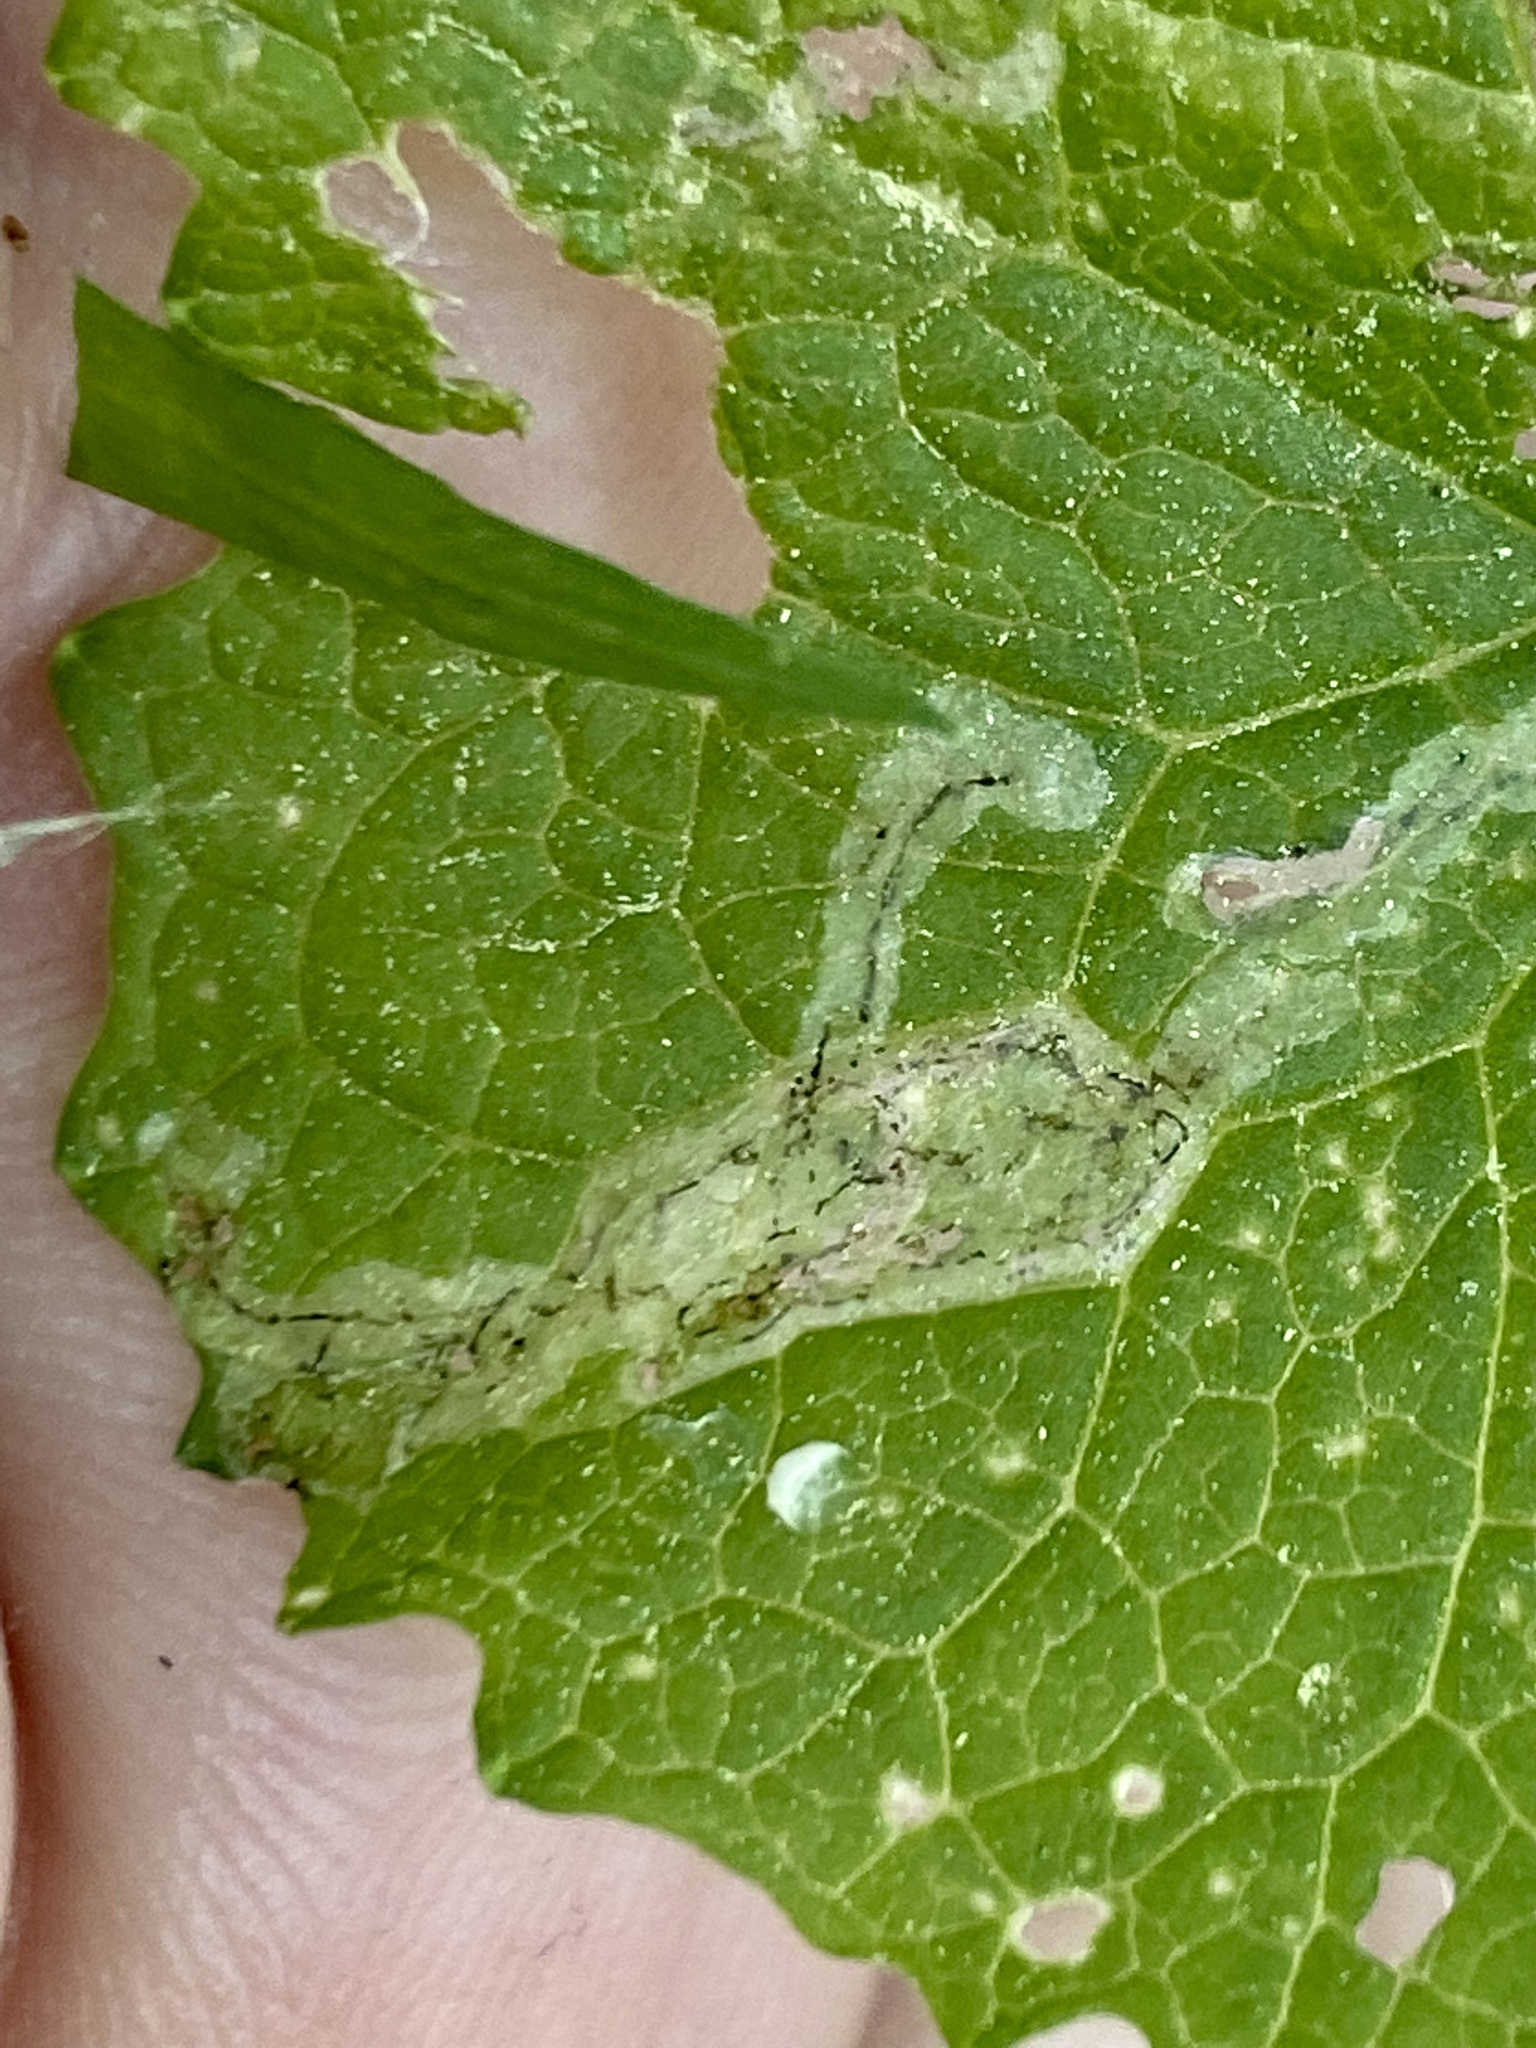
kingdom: Animalia
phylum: Arthropoda
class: Insecta
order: Diptera
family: Agromyzidae
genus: Liriomyza
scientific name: Liriomyza brassicae
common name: Serpentine leaf miner
